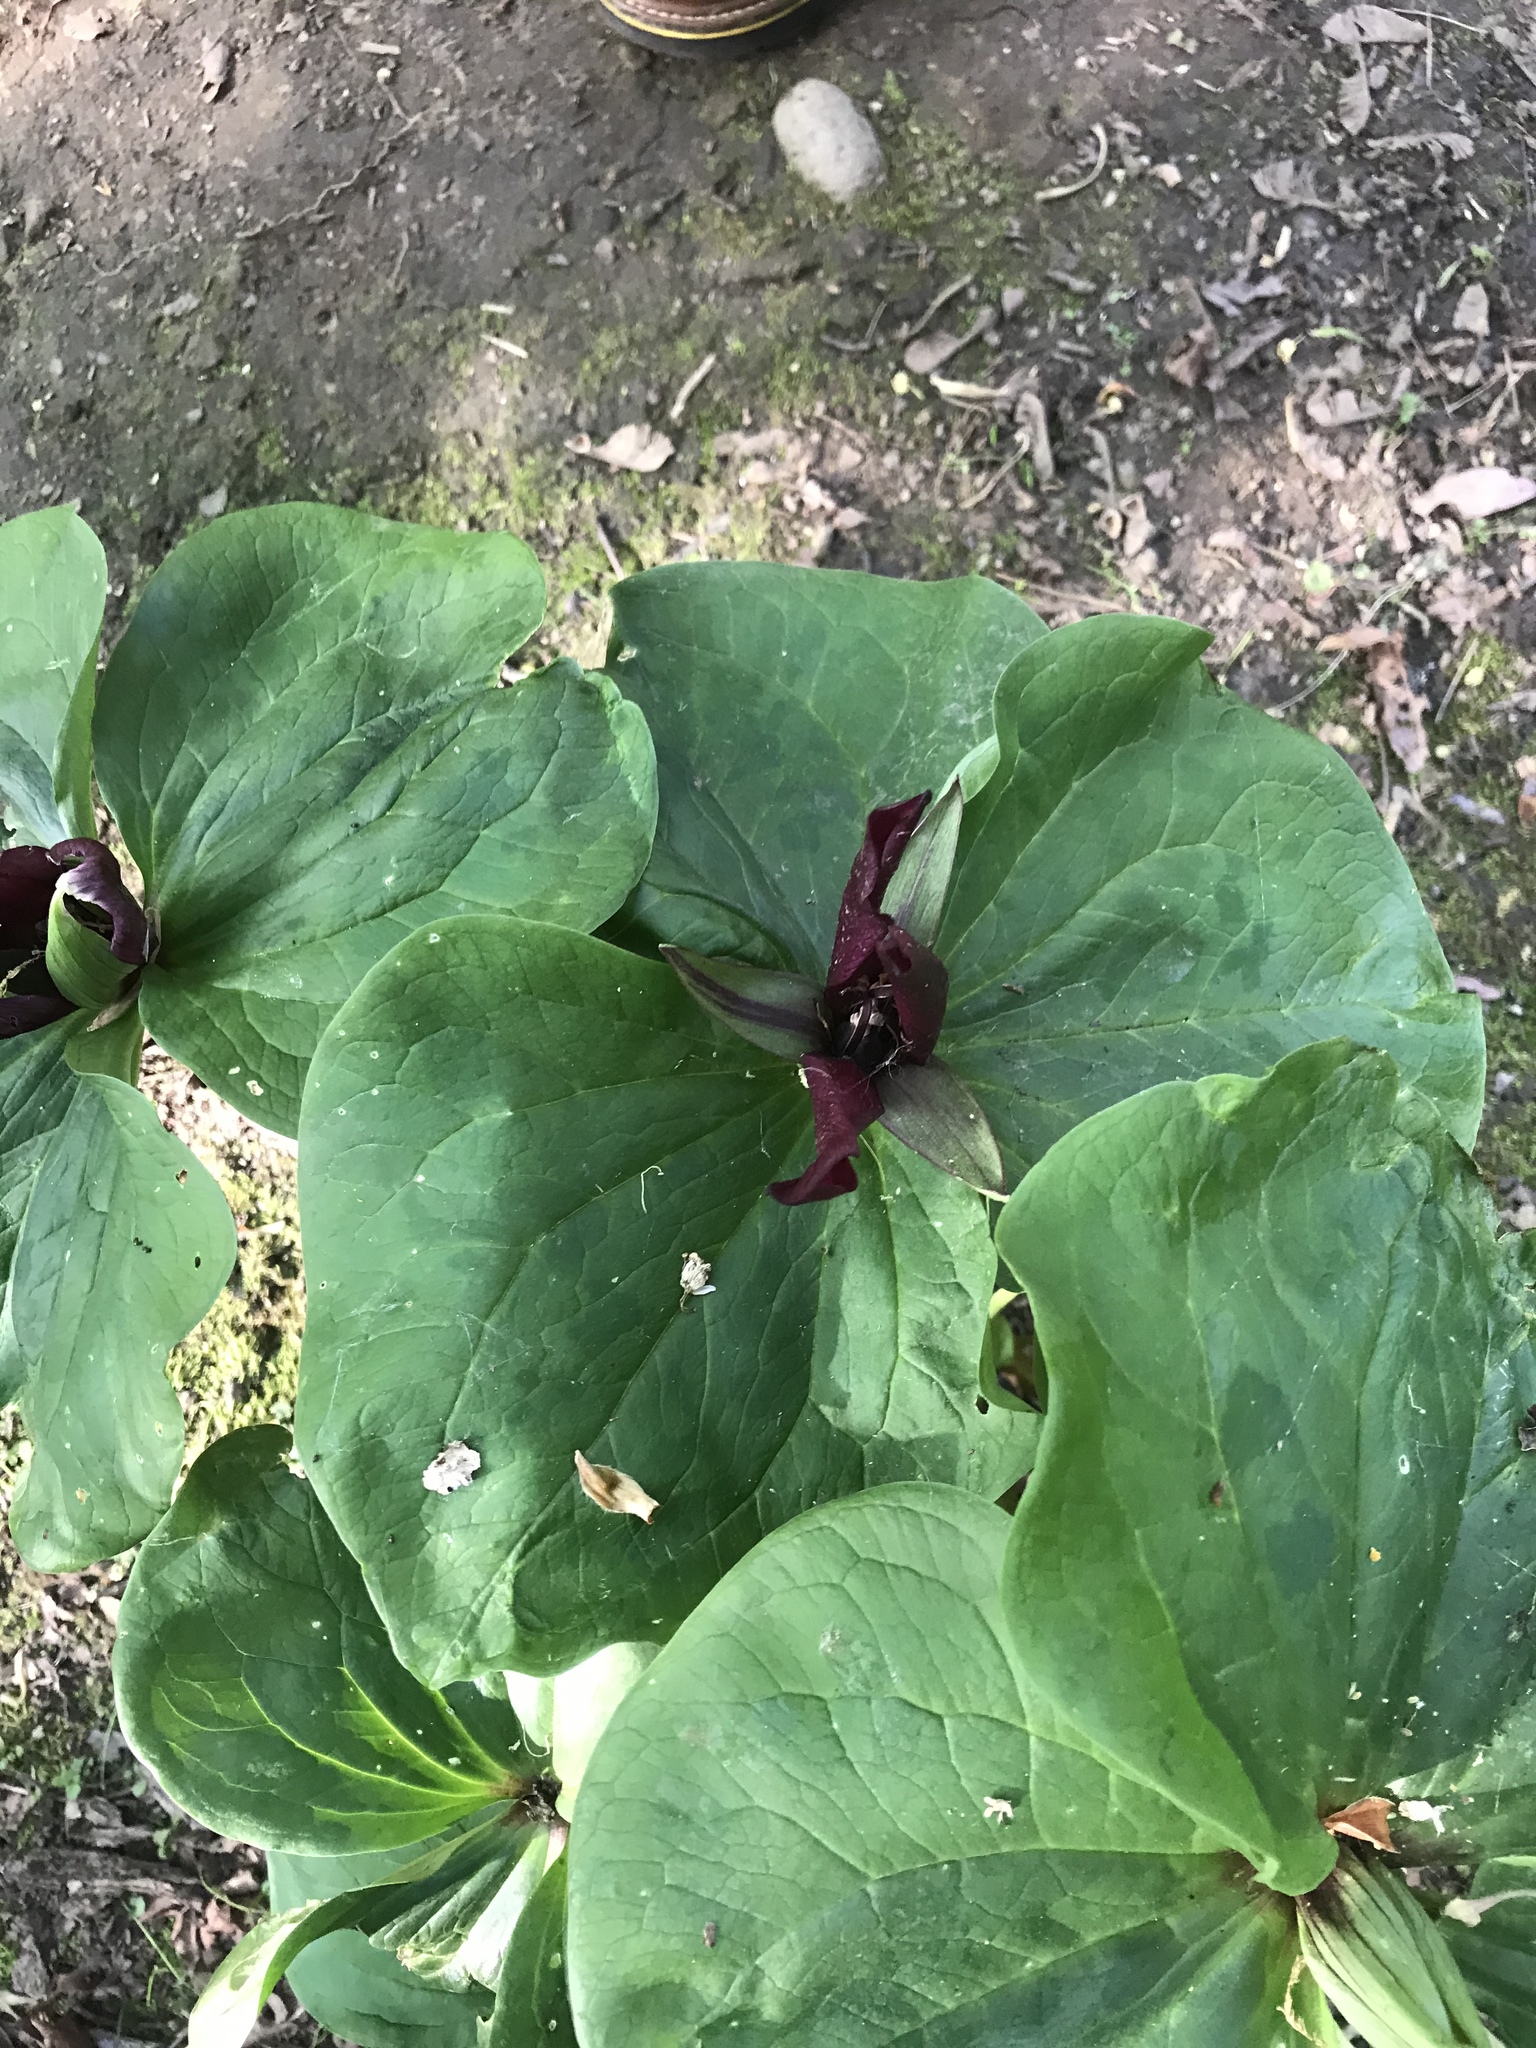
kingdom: Plantae
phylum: Tracheophyta
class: Liliopsida
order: Liliales
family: Melanthiaceae
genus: Trillium
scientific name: Trillium chloropetalum
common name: Giant trillium
